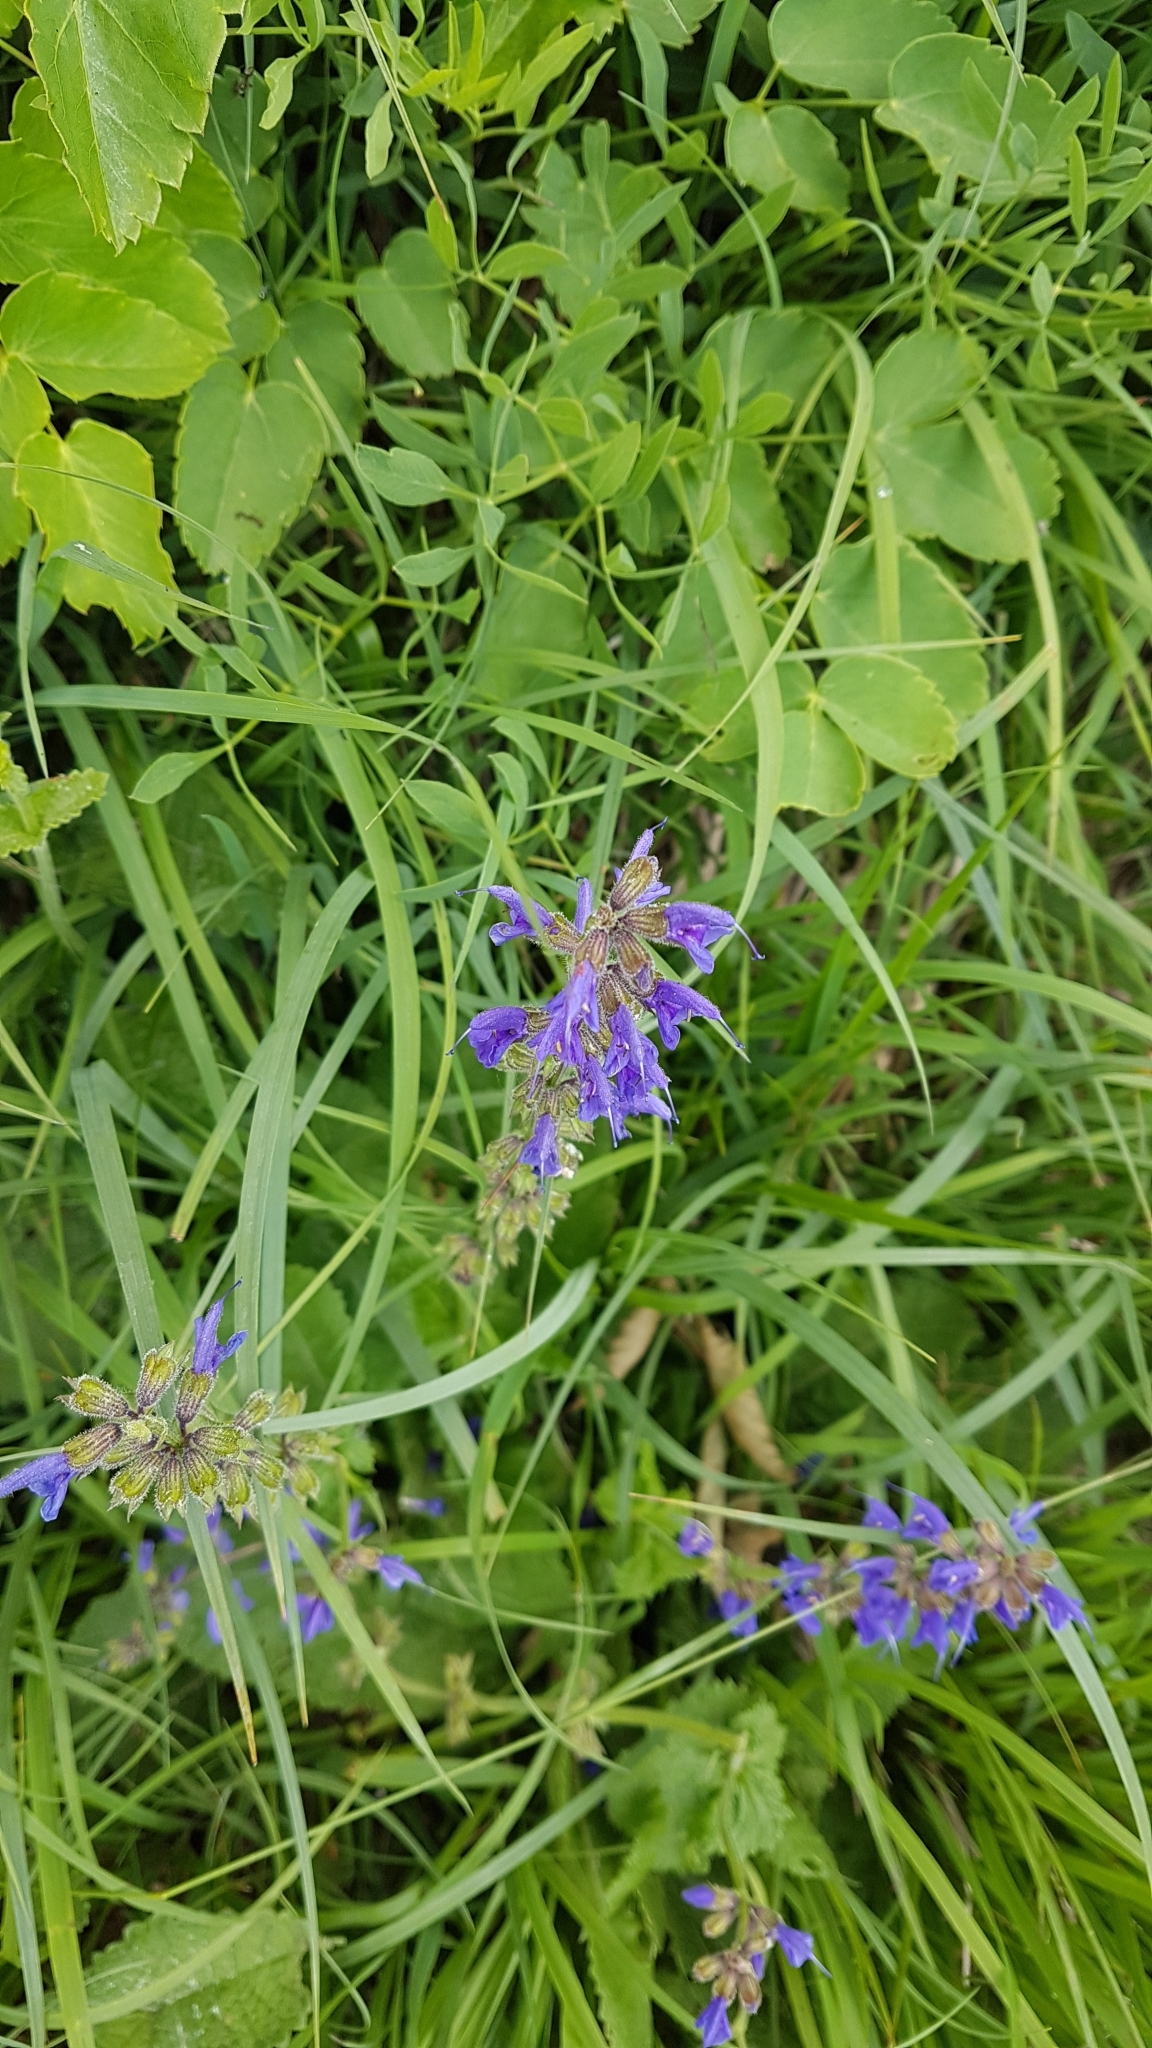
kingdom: Plantae
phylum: Tracheophyta
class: Magnoliopsida
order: Lamiales
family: Lamiaceae
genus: Salvia
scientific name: Salvia pratensis
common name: Meadow sage
